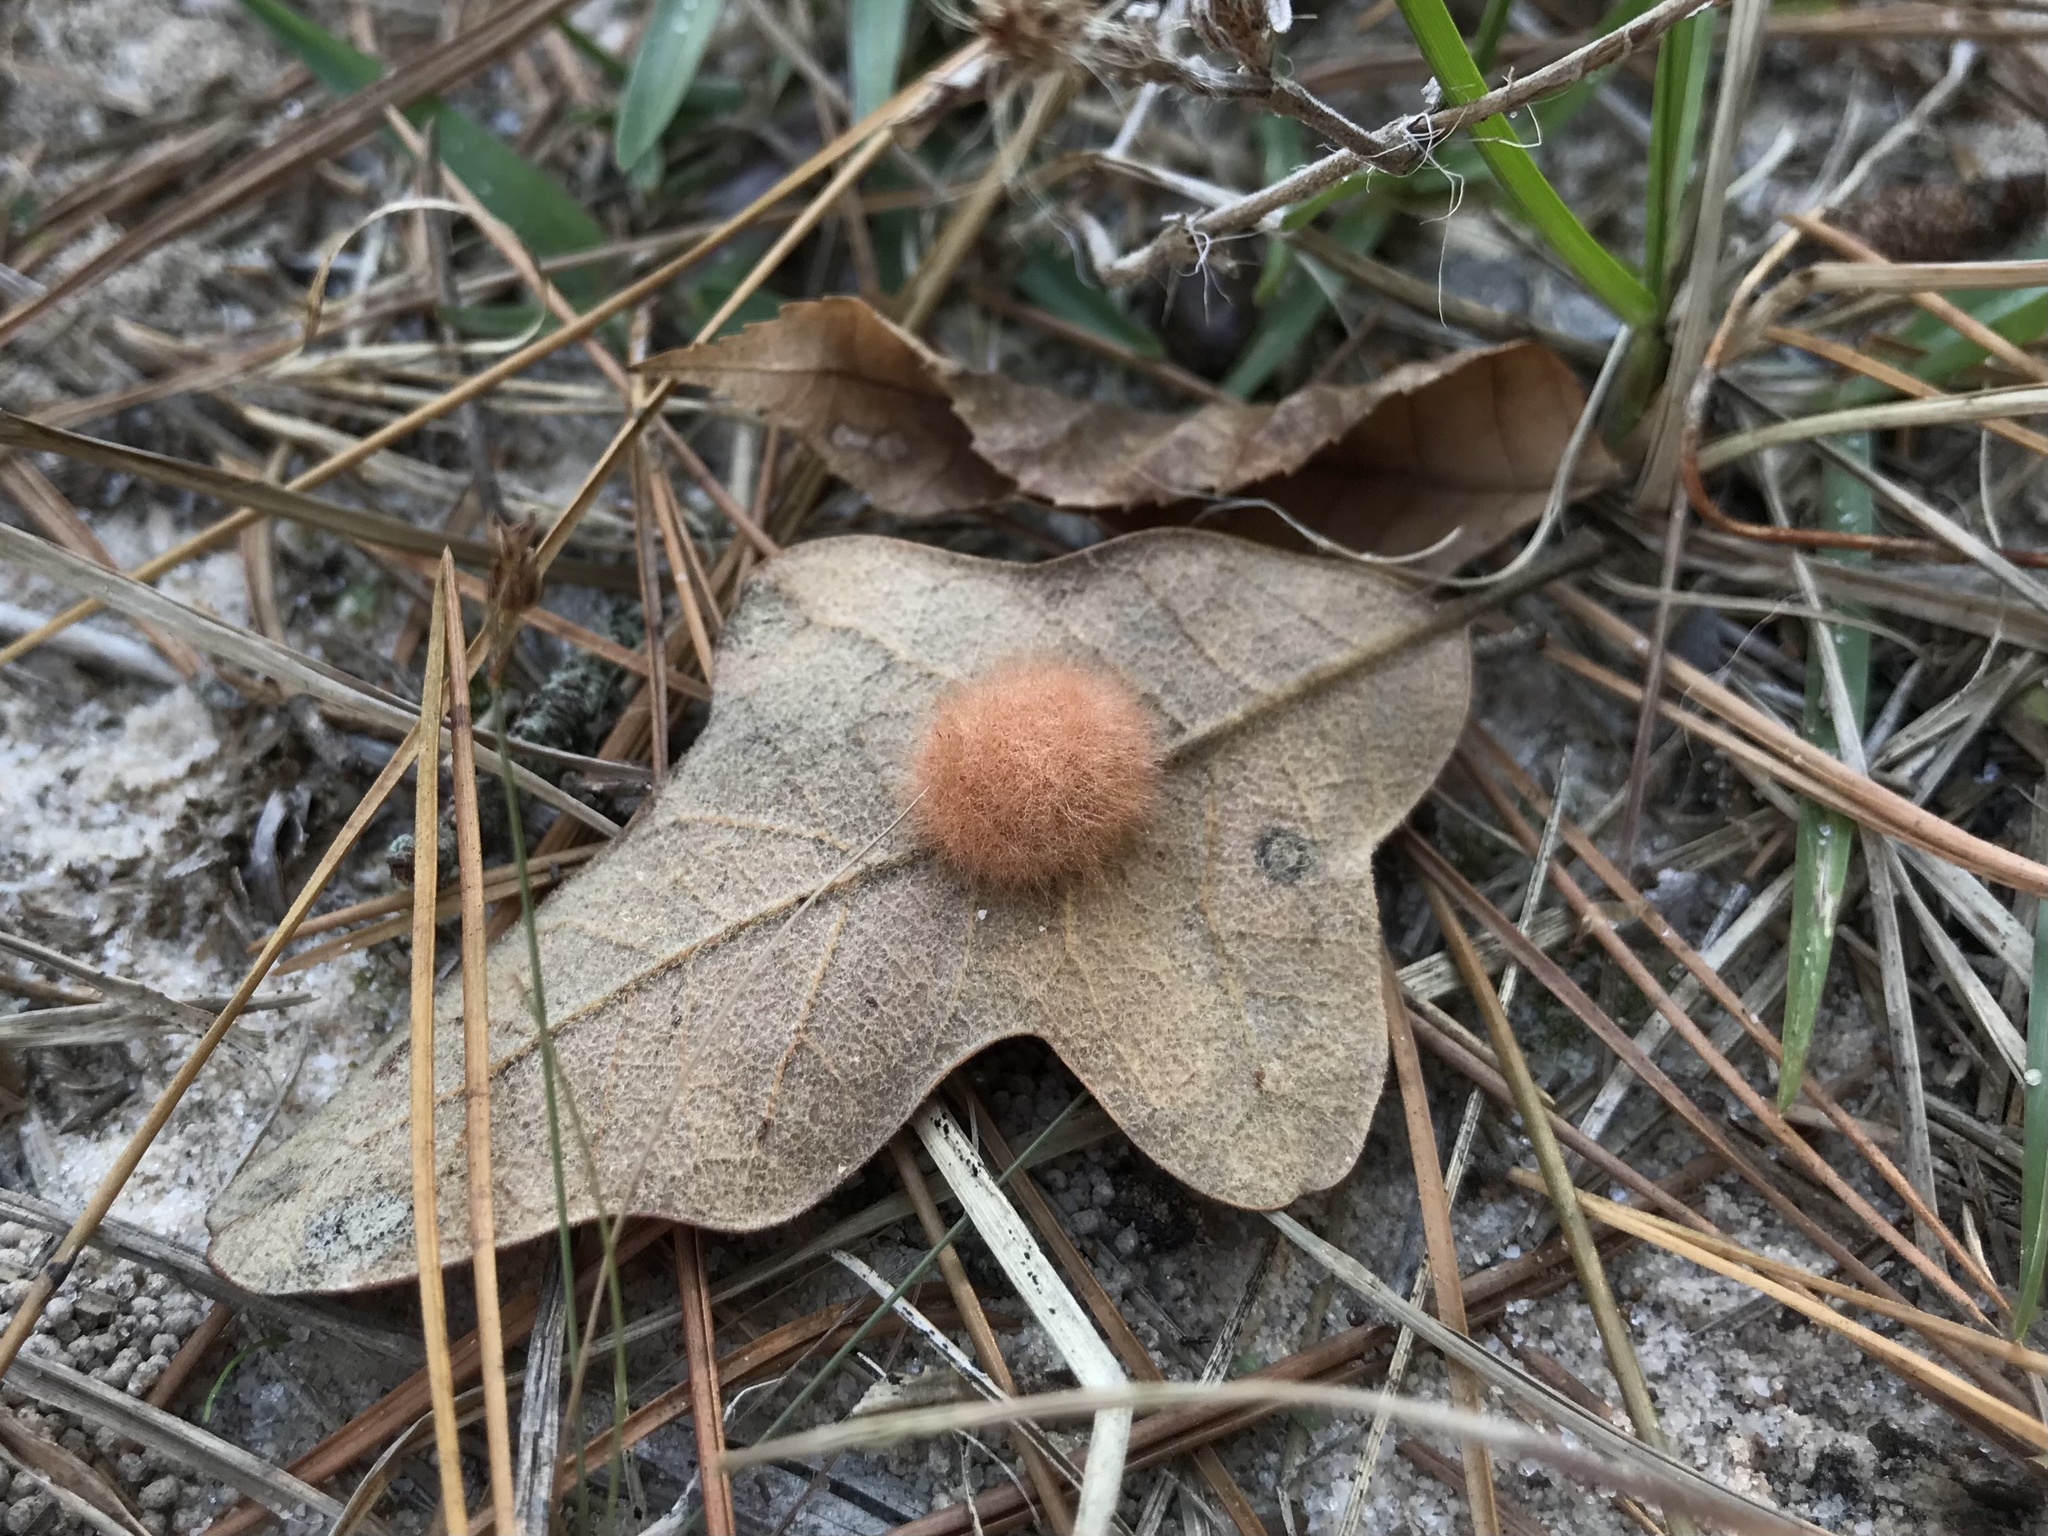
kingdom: Animalia
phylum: Arthropoda
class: Insecta
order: Hymenoptera
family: Cynipidae
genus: Andricus
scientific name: Andricus Druon pattoni
